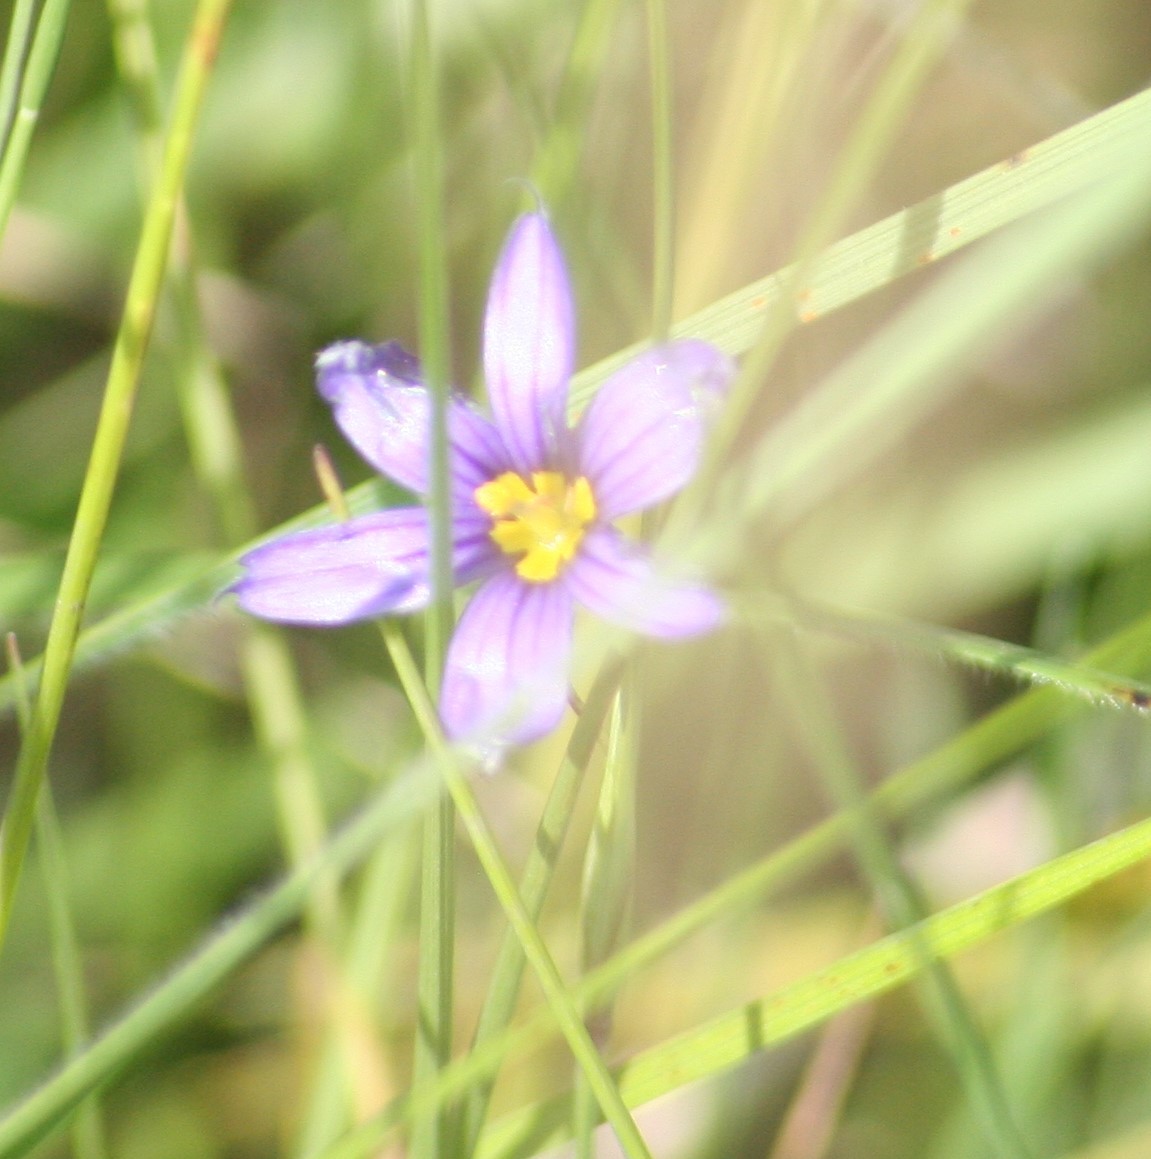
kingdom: Plantae
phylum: Tracheophyta
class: Liliopsida
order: Asparagales
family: Iridaceae
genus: Sisyrinchium
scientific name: Sisyrinchium montanum
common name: American blue-eyed-grass
